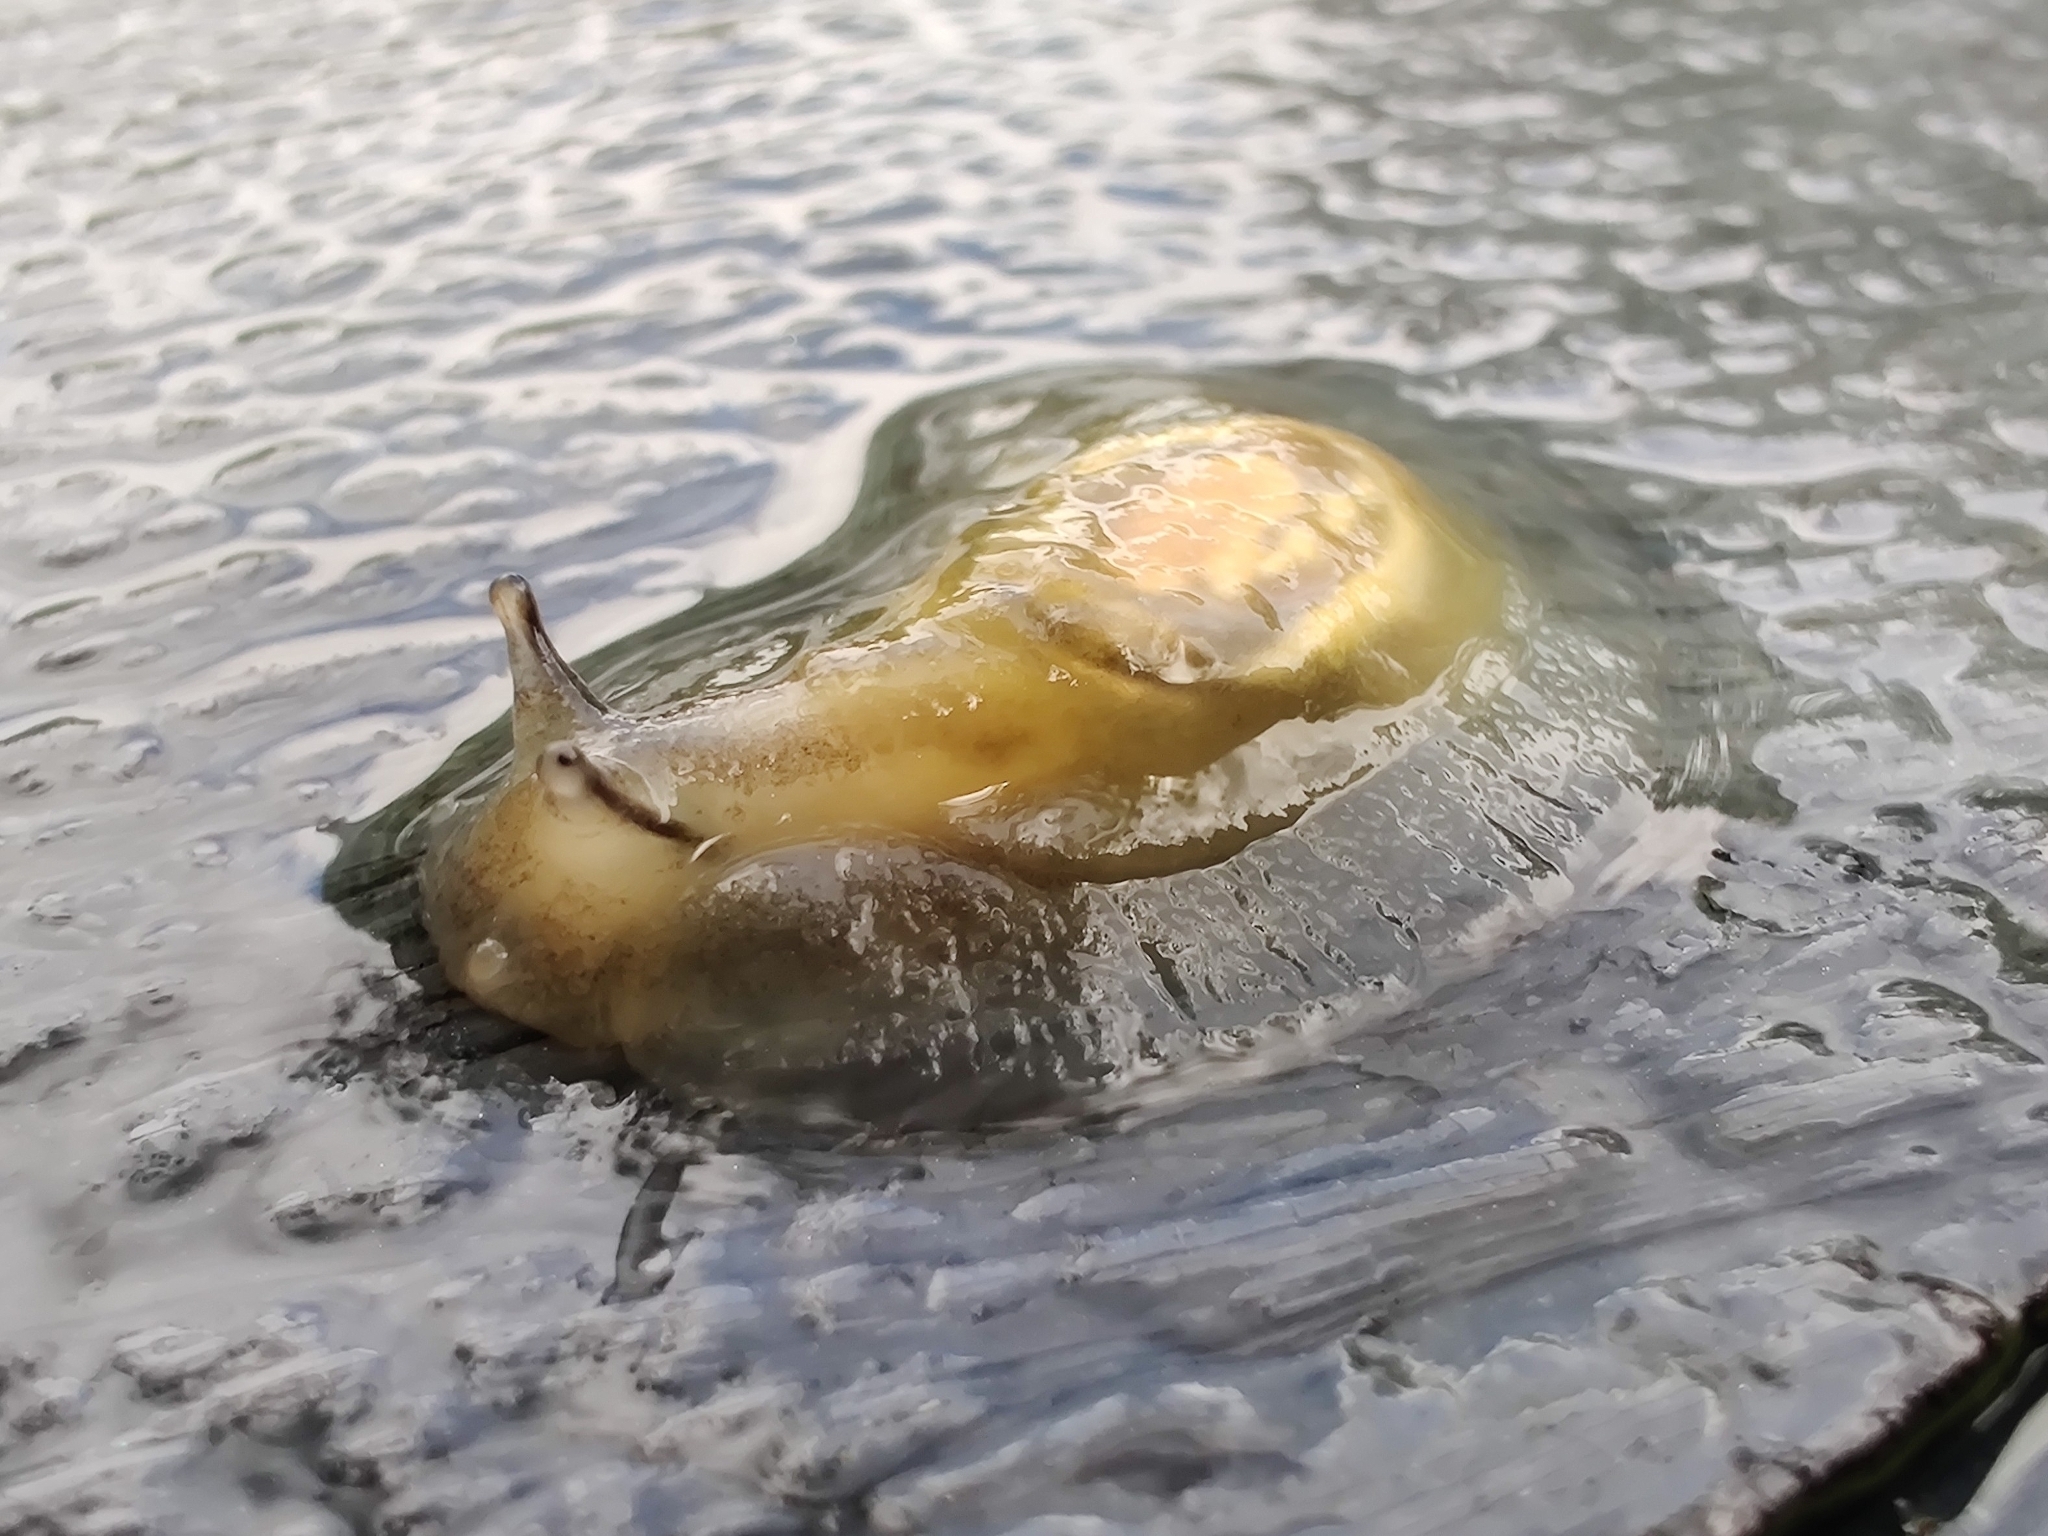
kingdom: Animalia
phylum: Mollusca
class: Gastropoda
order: Stylommatophora
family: Succineidae
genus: Hyalimax
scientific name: Hyalimax perlucidus
